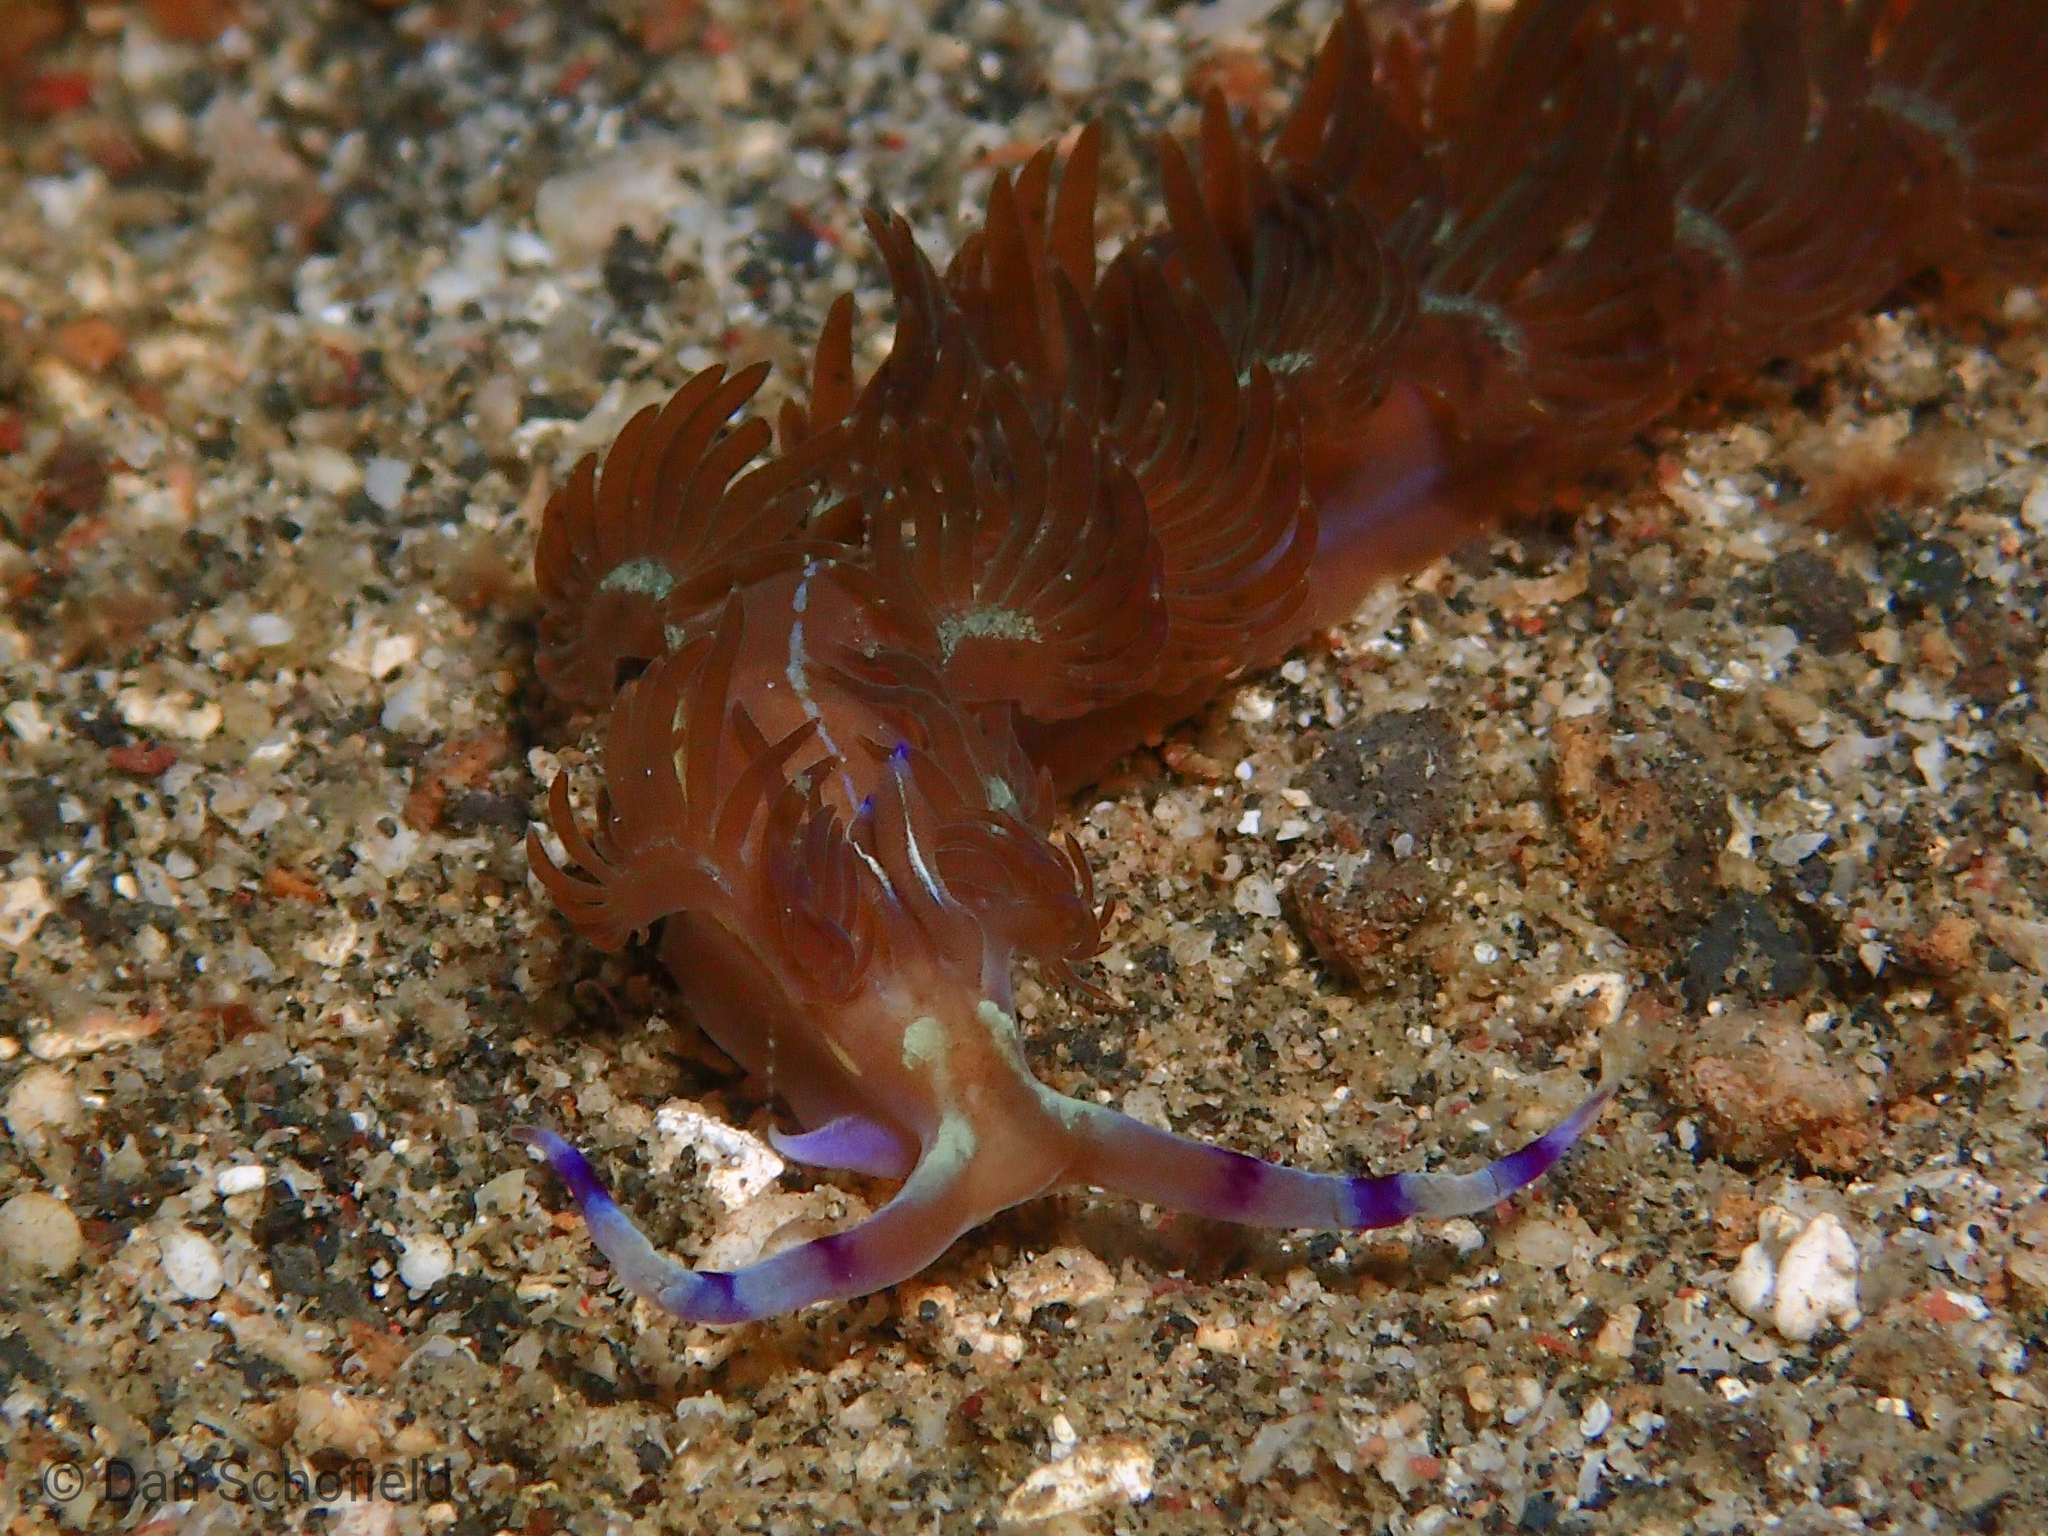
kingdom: Animalia
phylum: Mollusca
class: Gastropoda
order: Nudibranchia
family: Facelinidae
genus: Pteraeolidia
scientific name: Pteraeolidia semperi
